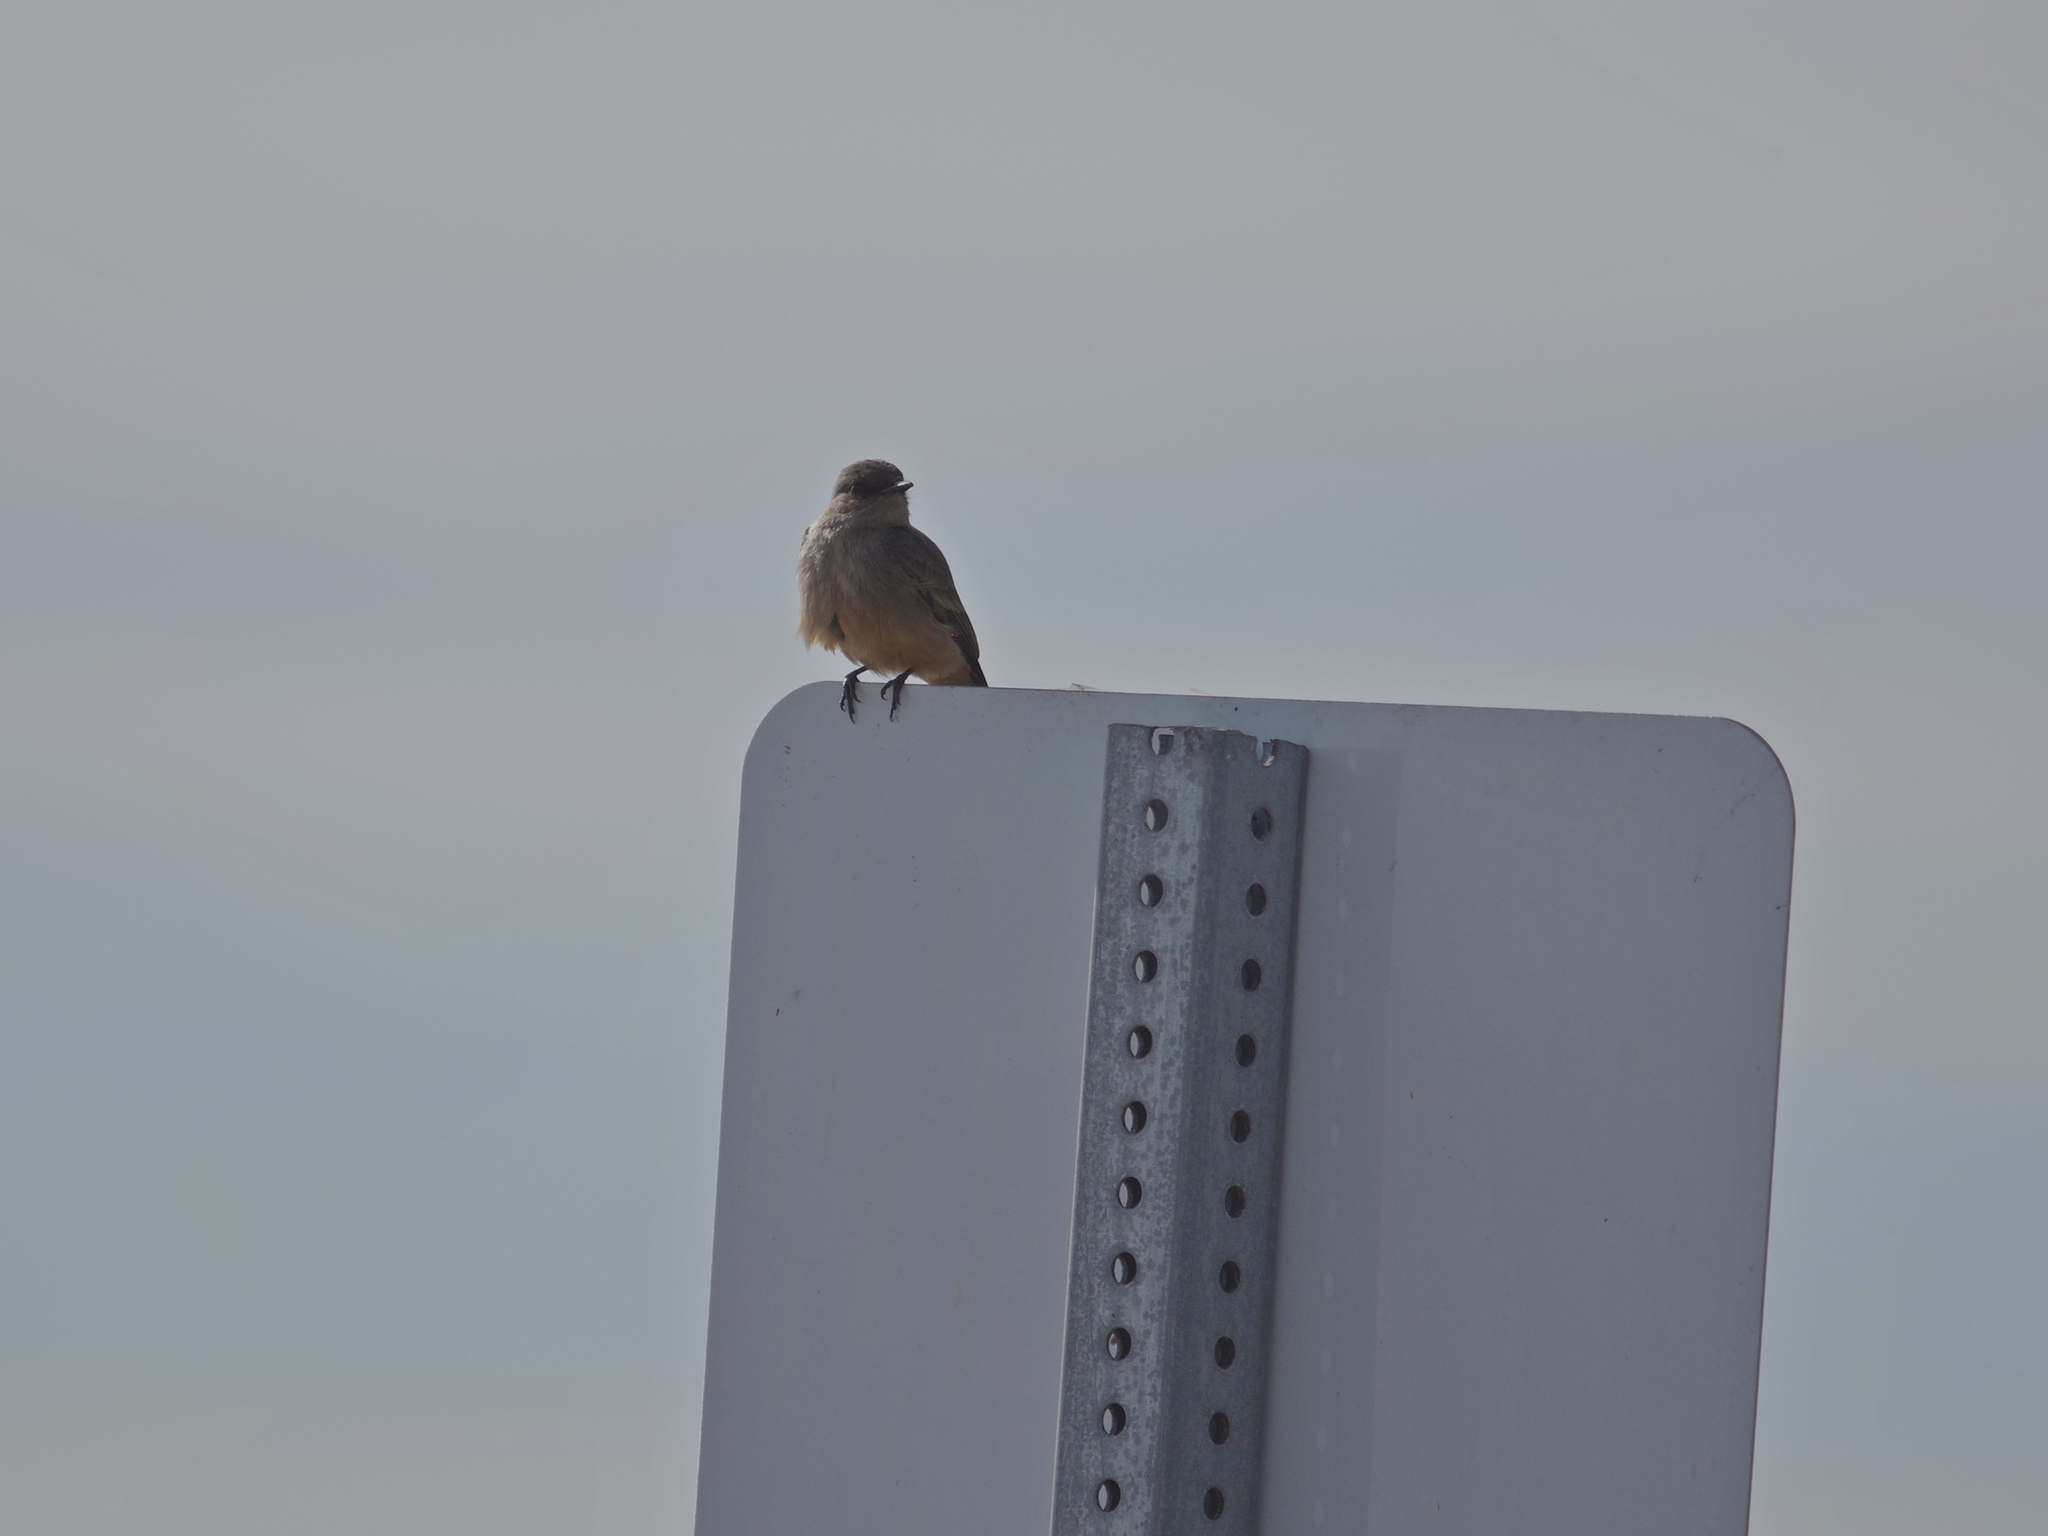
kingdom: Animalia
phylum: Chordata
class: Aves
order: Passeriformes
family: Tyrannidae
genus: Sayornis
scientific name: Sayornis saya
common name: Say's phoebe
